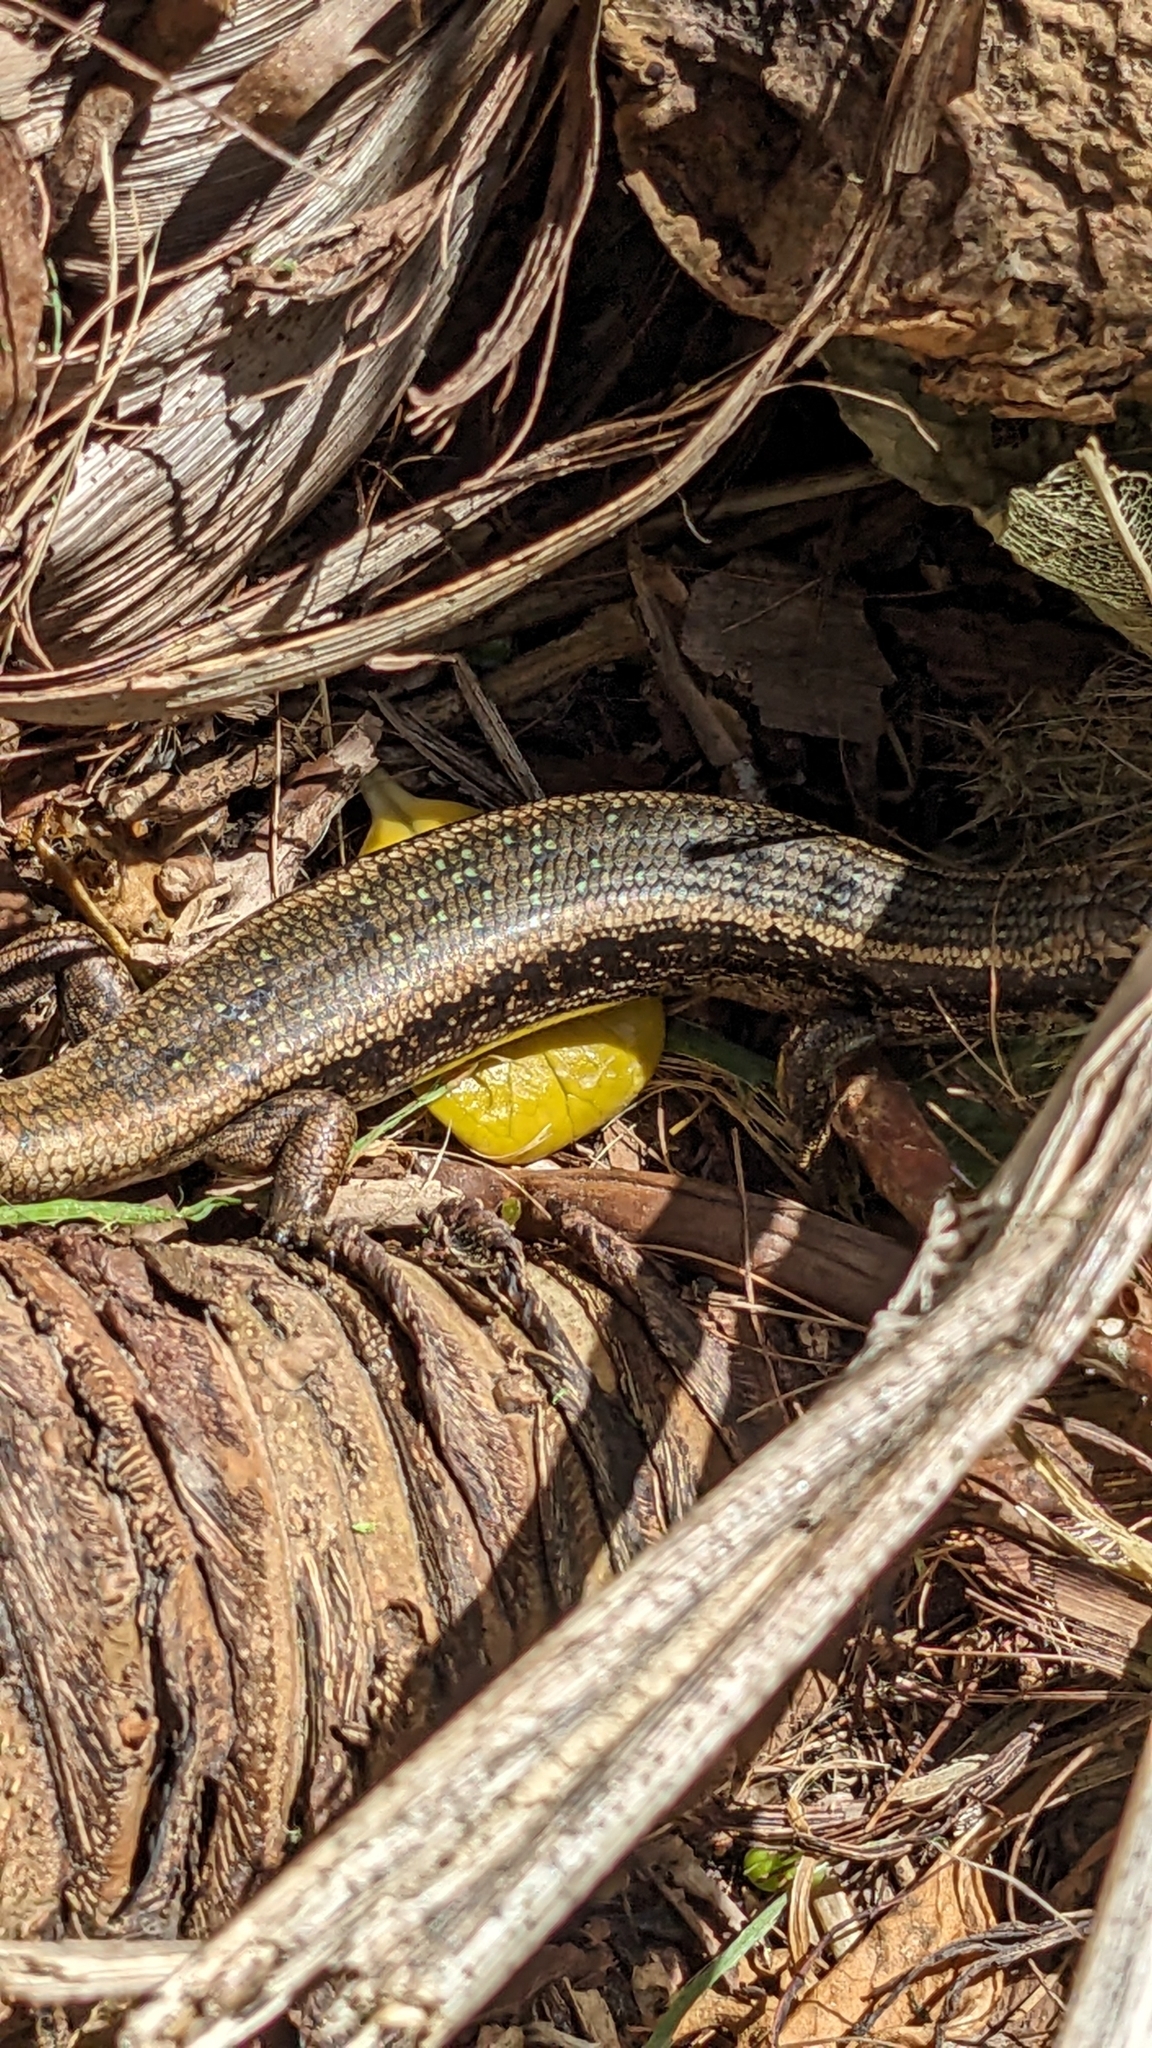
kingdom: Animalia
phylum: Chordata
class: Squamata
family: Scincidae
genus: Oligosoma
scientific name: Oligosoma kokowai
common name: Northern spotted skink
